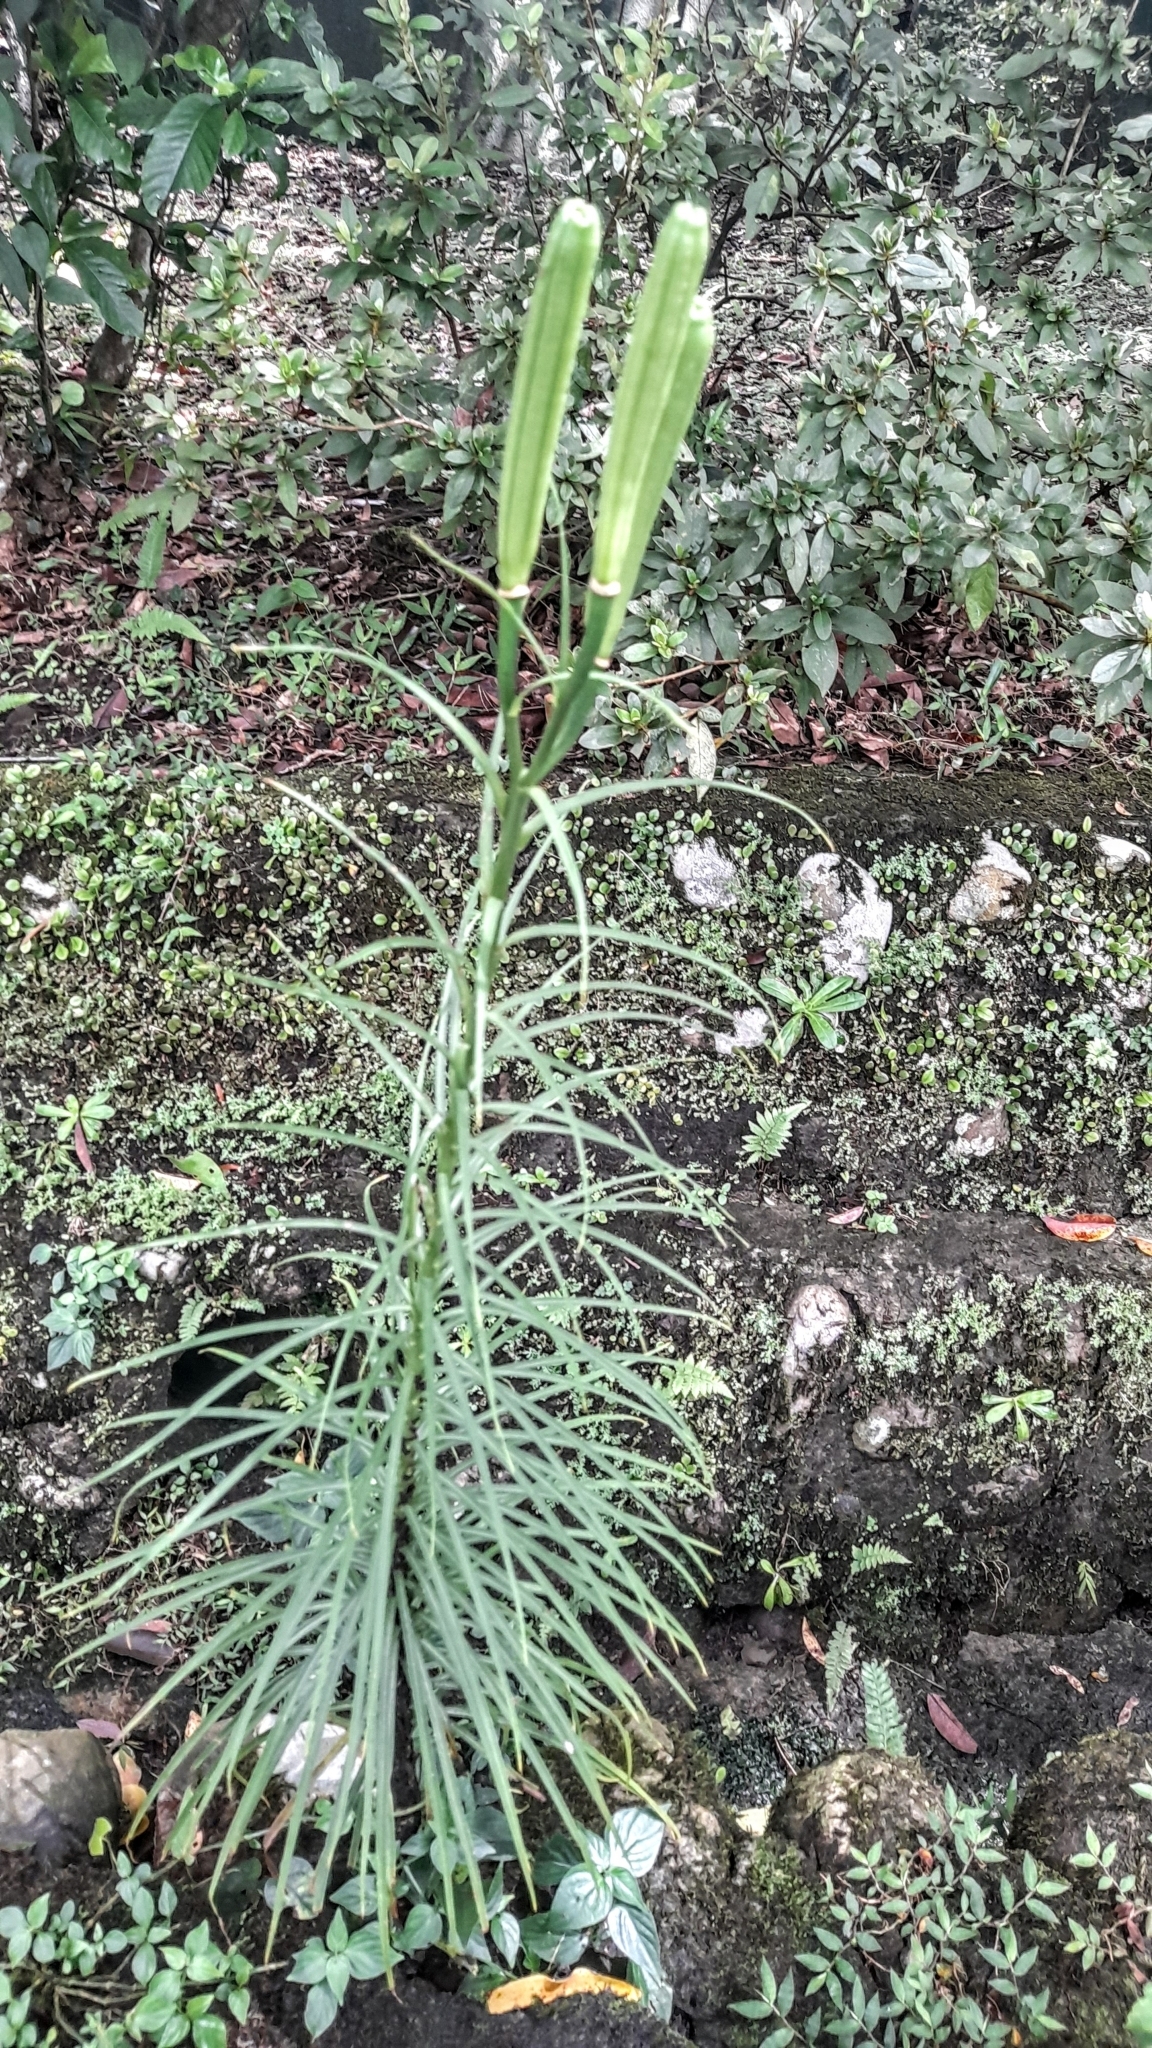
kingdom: Plantae
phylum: Tracheophyta
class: Liliopsida
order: Liliales
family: Liliaceae
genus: Lilium
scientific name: Lilium formosanum
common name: Formosa lily
